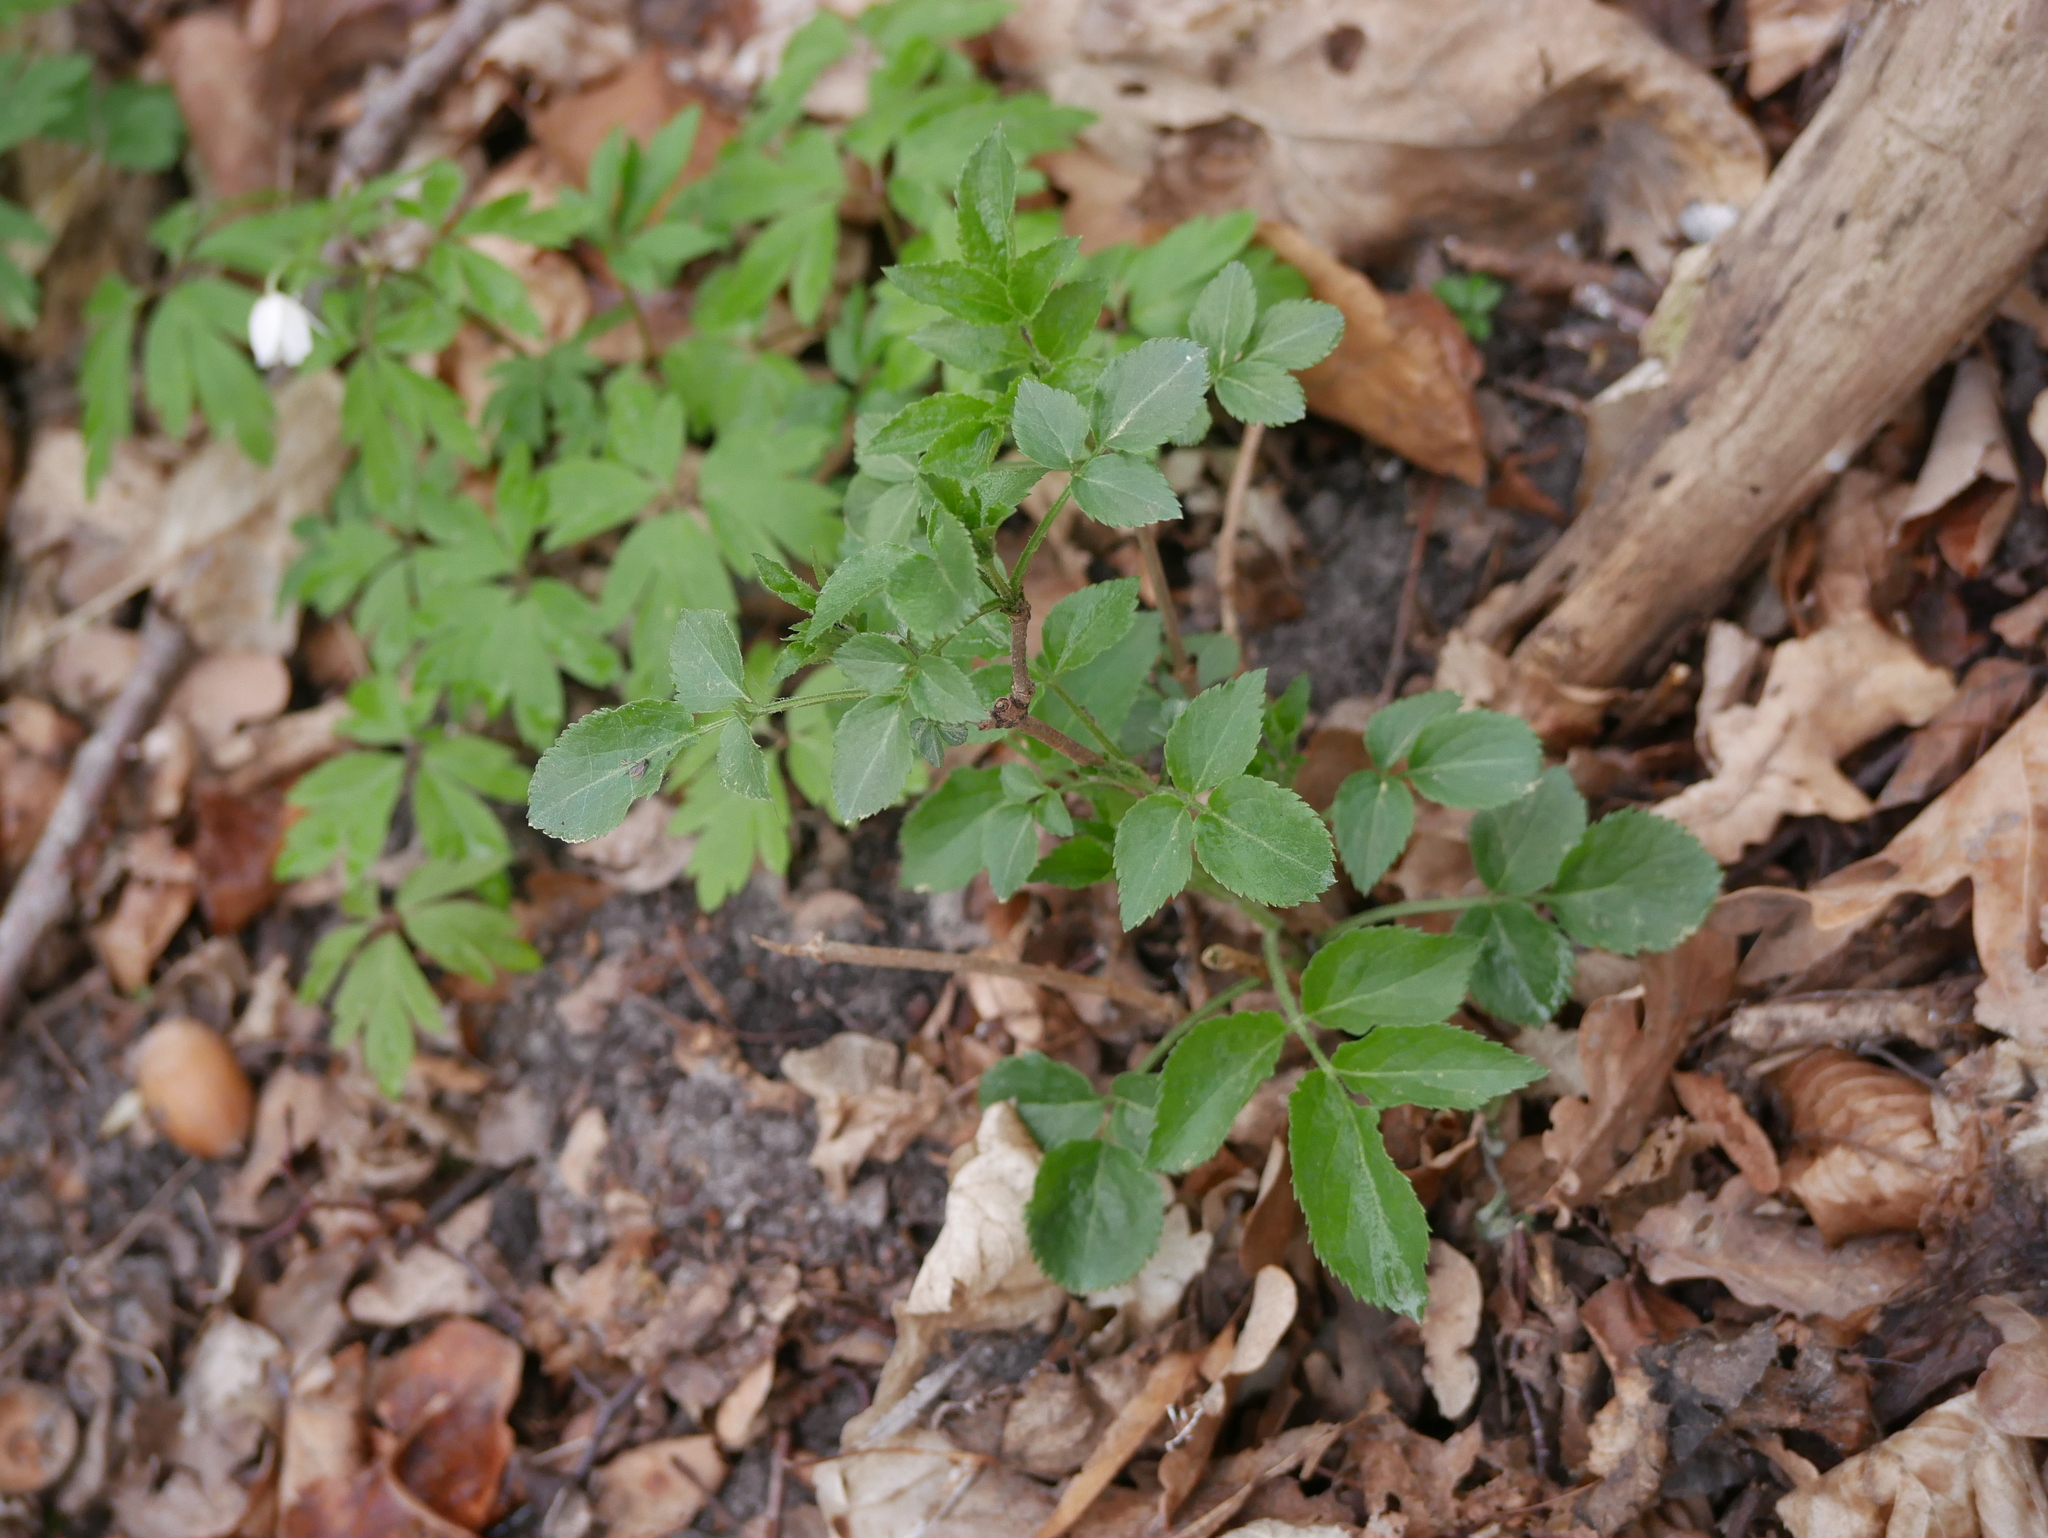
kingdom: Plantae
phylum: Tracheophyta
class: Magnoliopsida
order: Dipsacales
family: Viburnaceae
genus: Sambucus
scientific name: Sambucus nigra
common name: Elder
